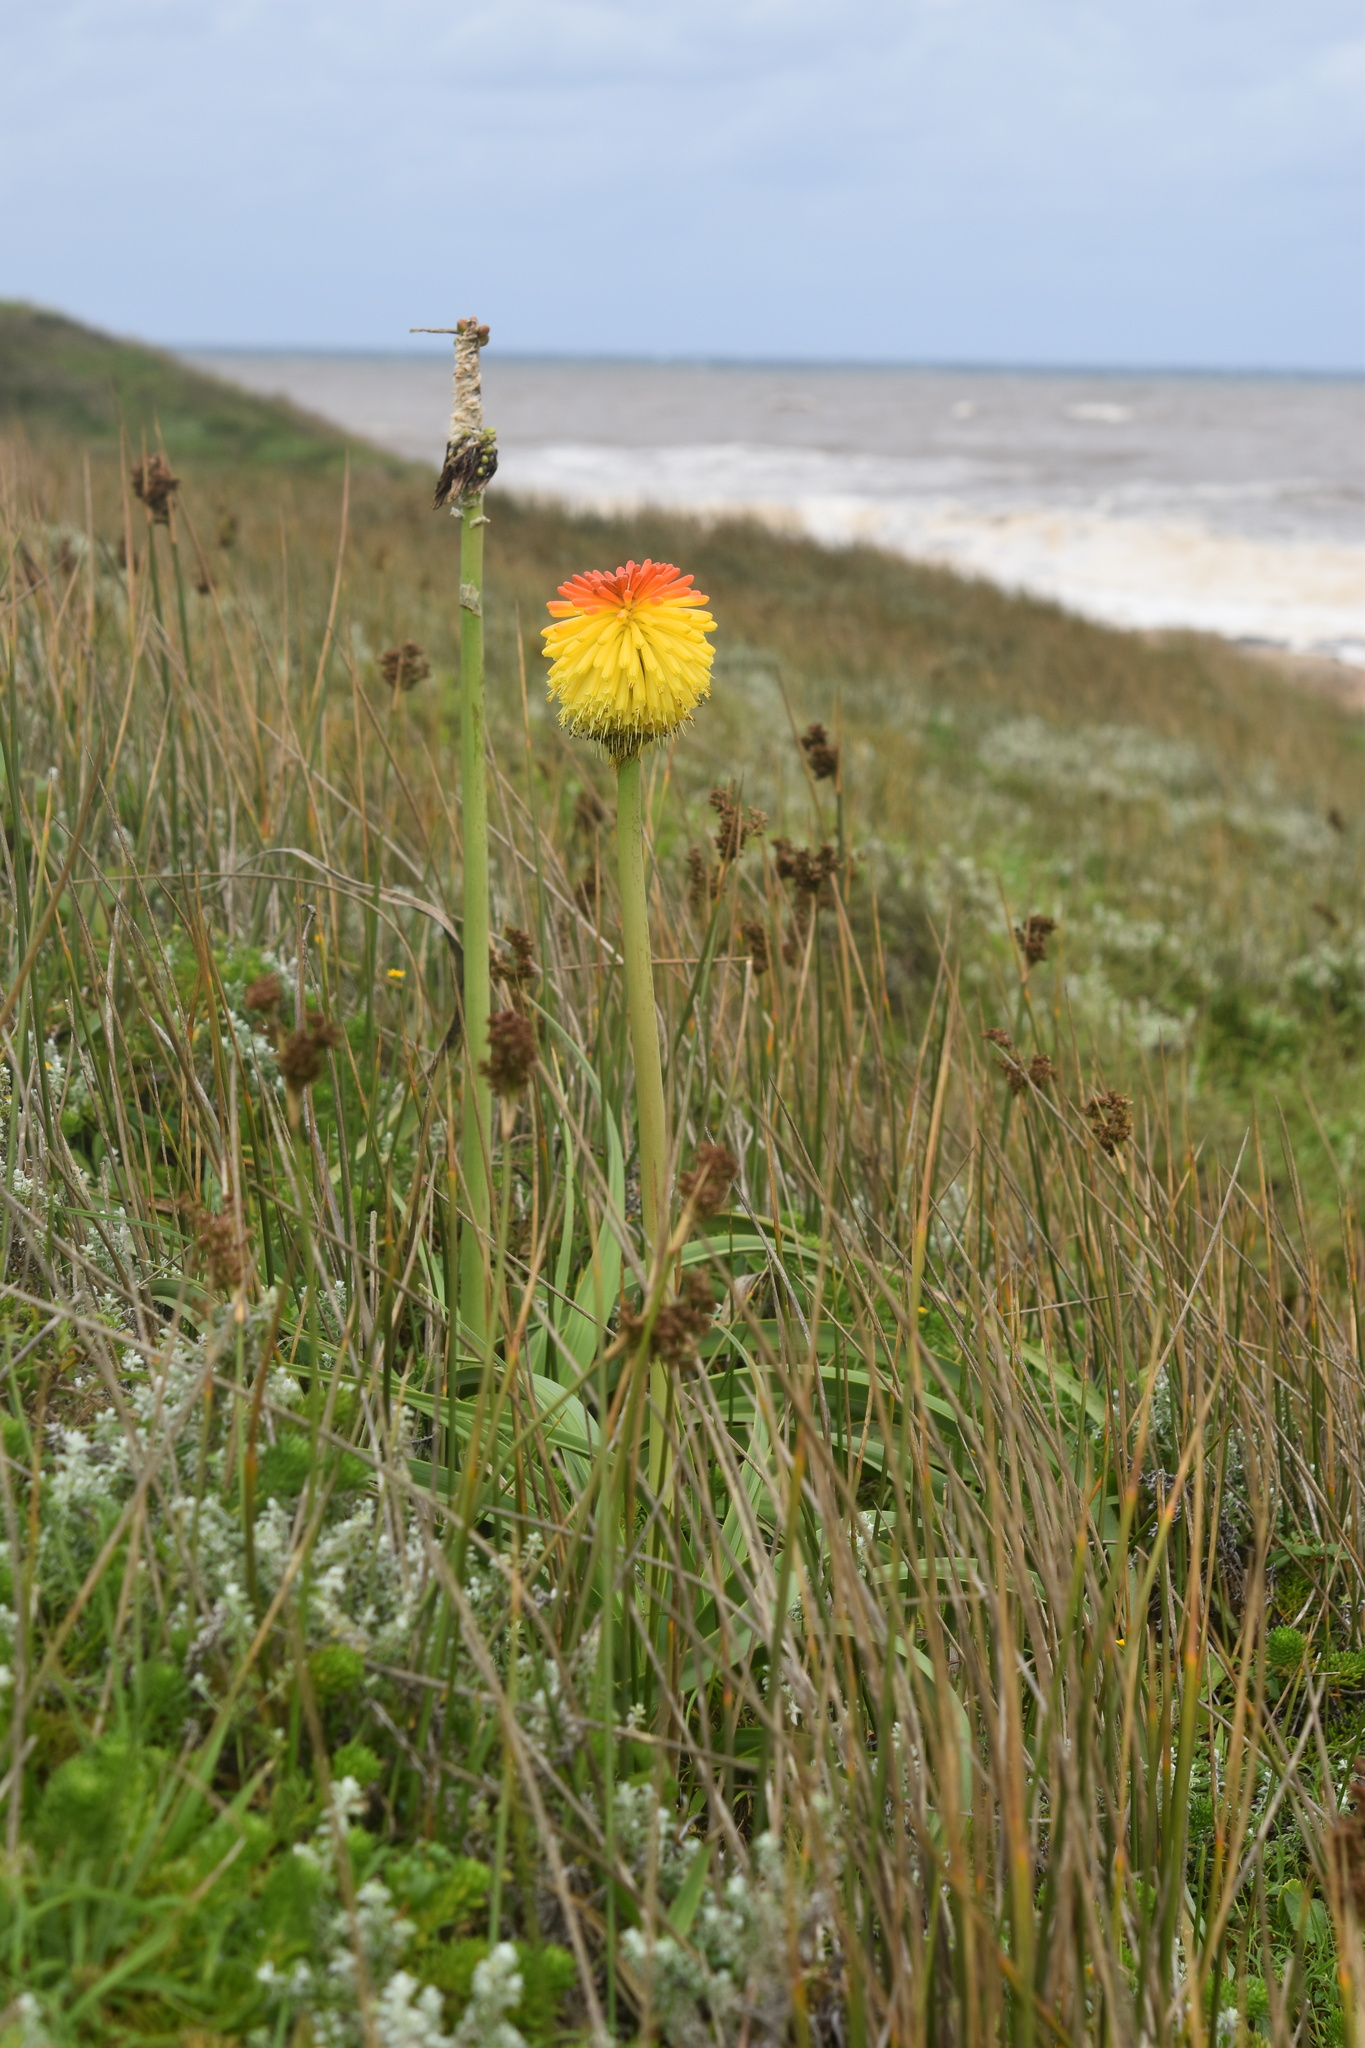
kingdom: Plantae
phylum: Tracheophyta
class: Liliopsida
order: Asparagales
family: Asphodelaceae
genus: Kniphofia
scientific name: Kniphofia uvaria
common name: Red-hot-poker
